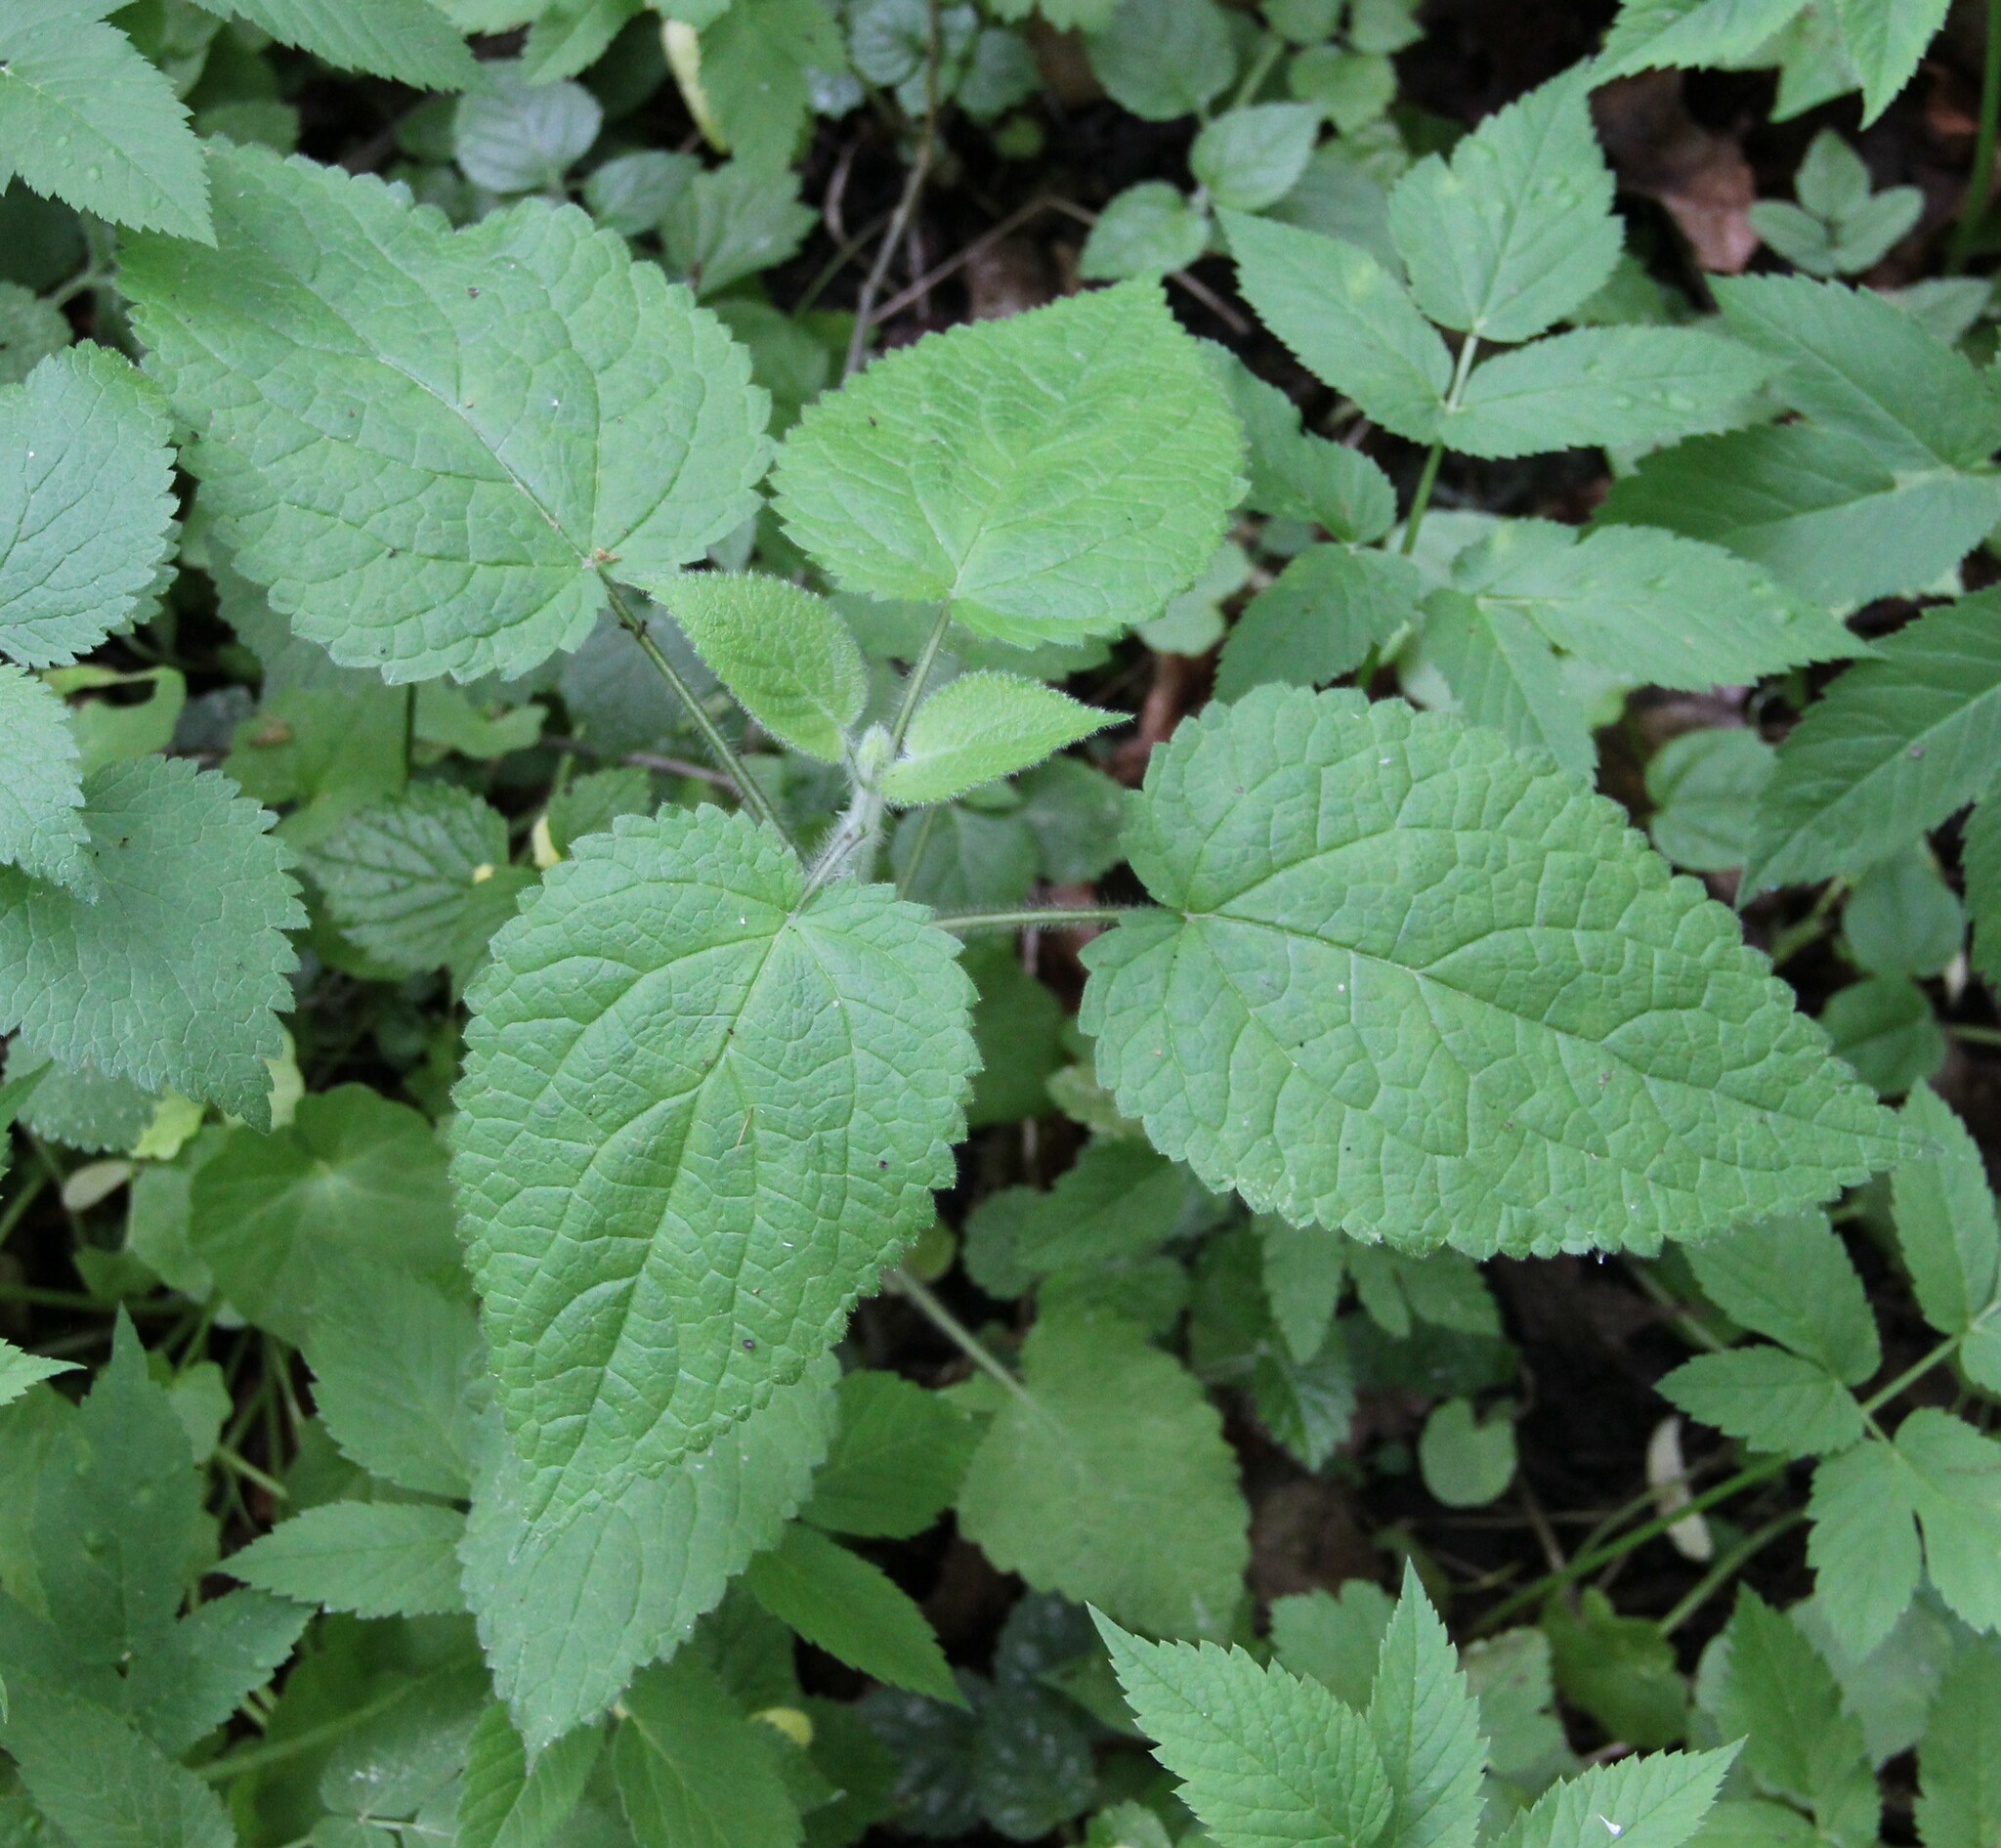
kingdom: Plantae
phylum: Tracheophyta
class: Magnoliopsida
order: Lamiales
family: Lamiaceae
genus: Stachys
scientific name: Stachys sylvatica
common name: Hedge woundwort
